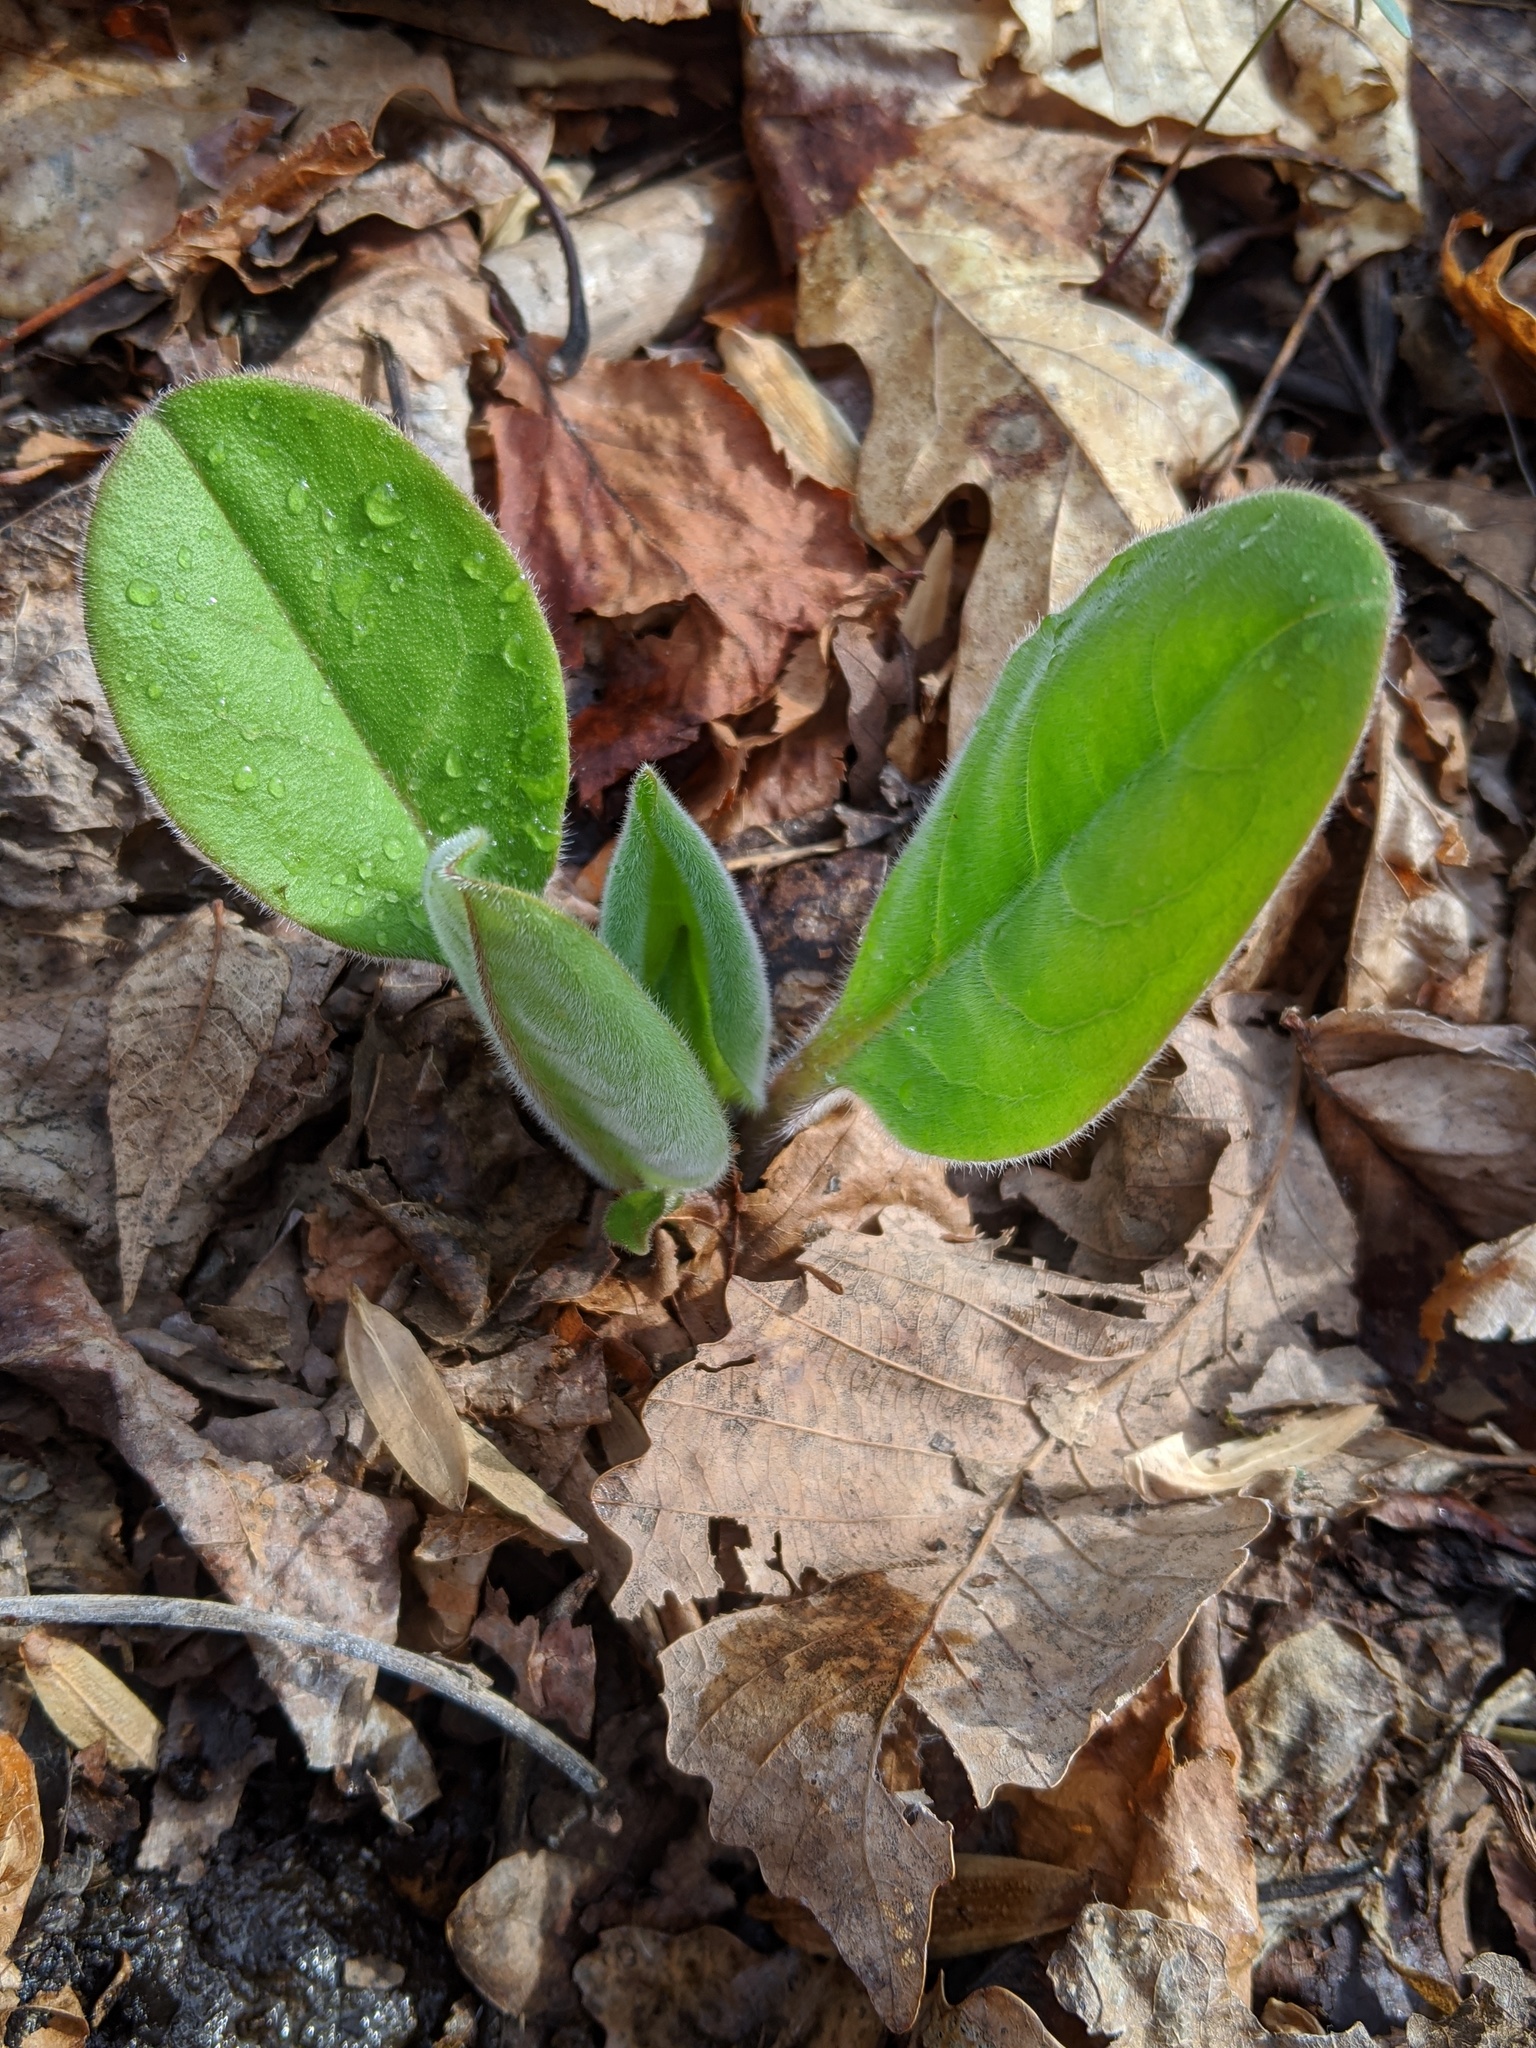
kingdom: Plantae
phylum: Tracheophyta
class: Magnoliopsida
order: Boraginales
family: Boraginaceae
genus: Andersonglossum
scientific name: Andersonglossum virginianum
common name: Wild comfrey
